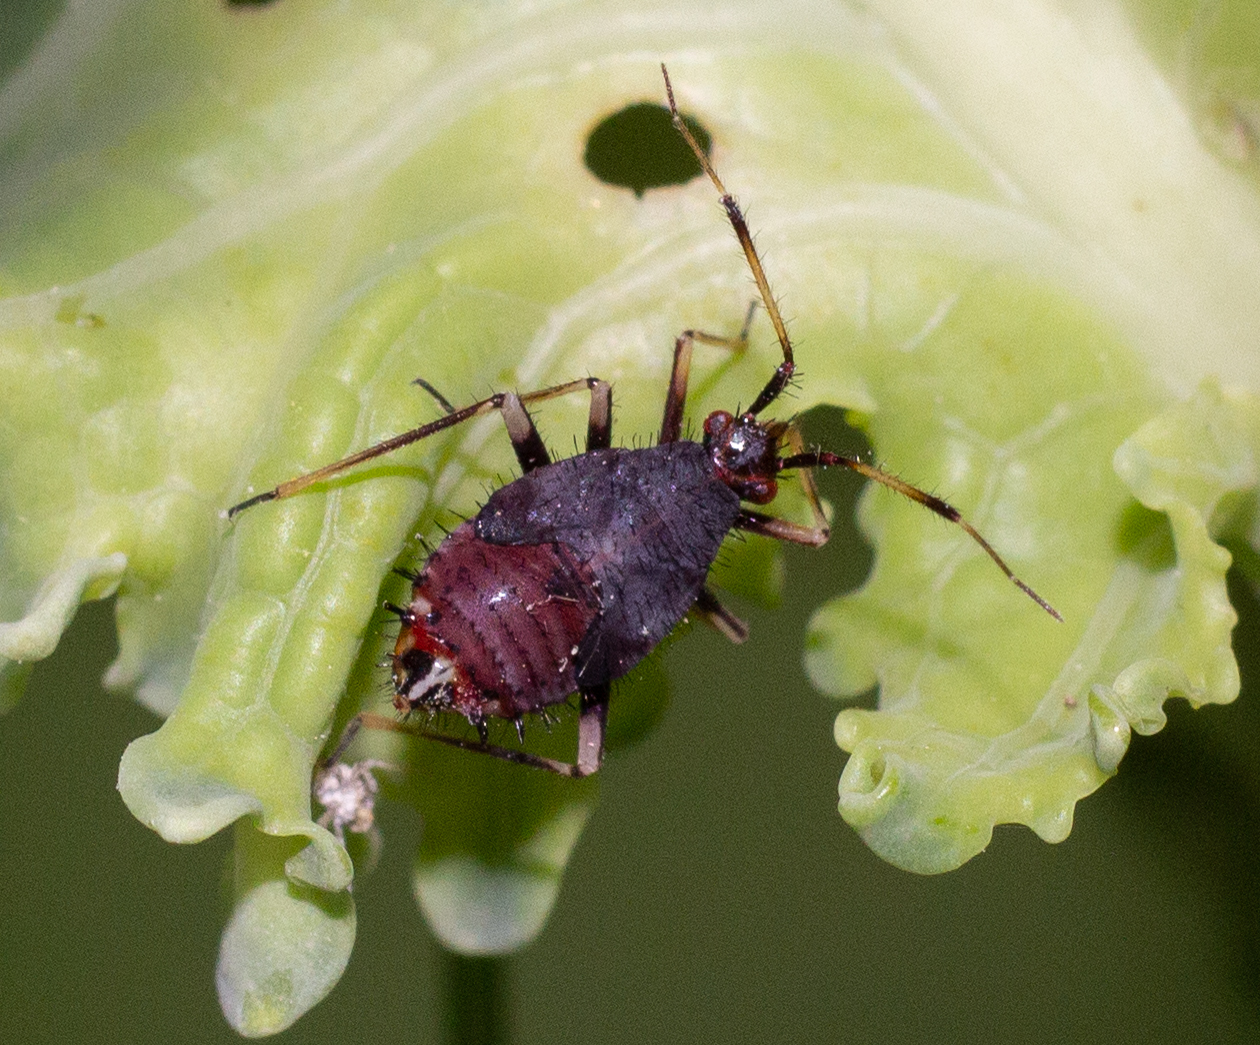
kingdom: Animalia
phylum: Arthropoda
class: Insecta
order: Hemiptera
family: Miridae
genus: Deraeocoris
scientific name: Deraeocoris ruber
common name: Plant bug
